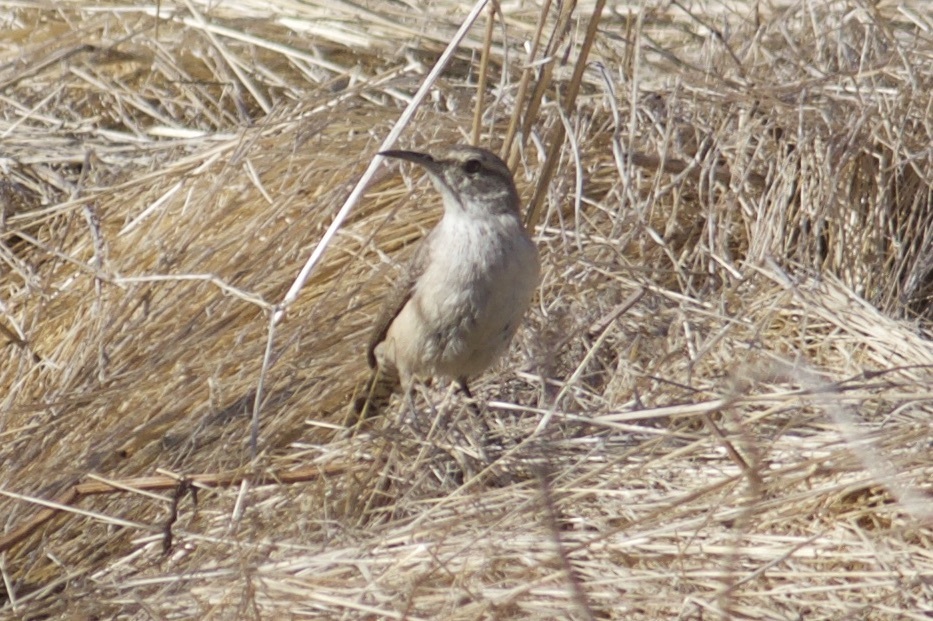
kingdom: Animalia
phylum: Chordata
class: Aves
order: Passeriformes
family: Troglodytidae
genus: Salpinctes
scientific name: Salpinctes obsoletus
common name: Rock wren
